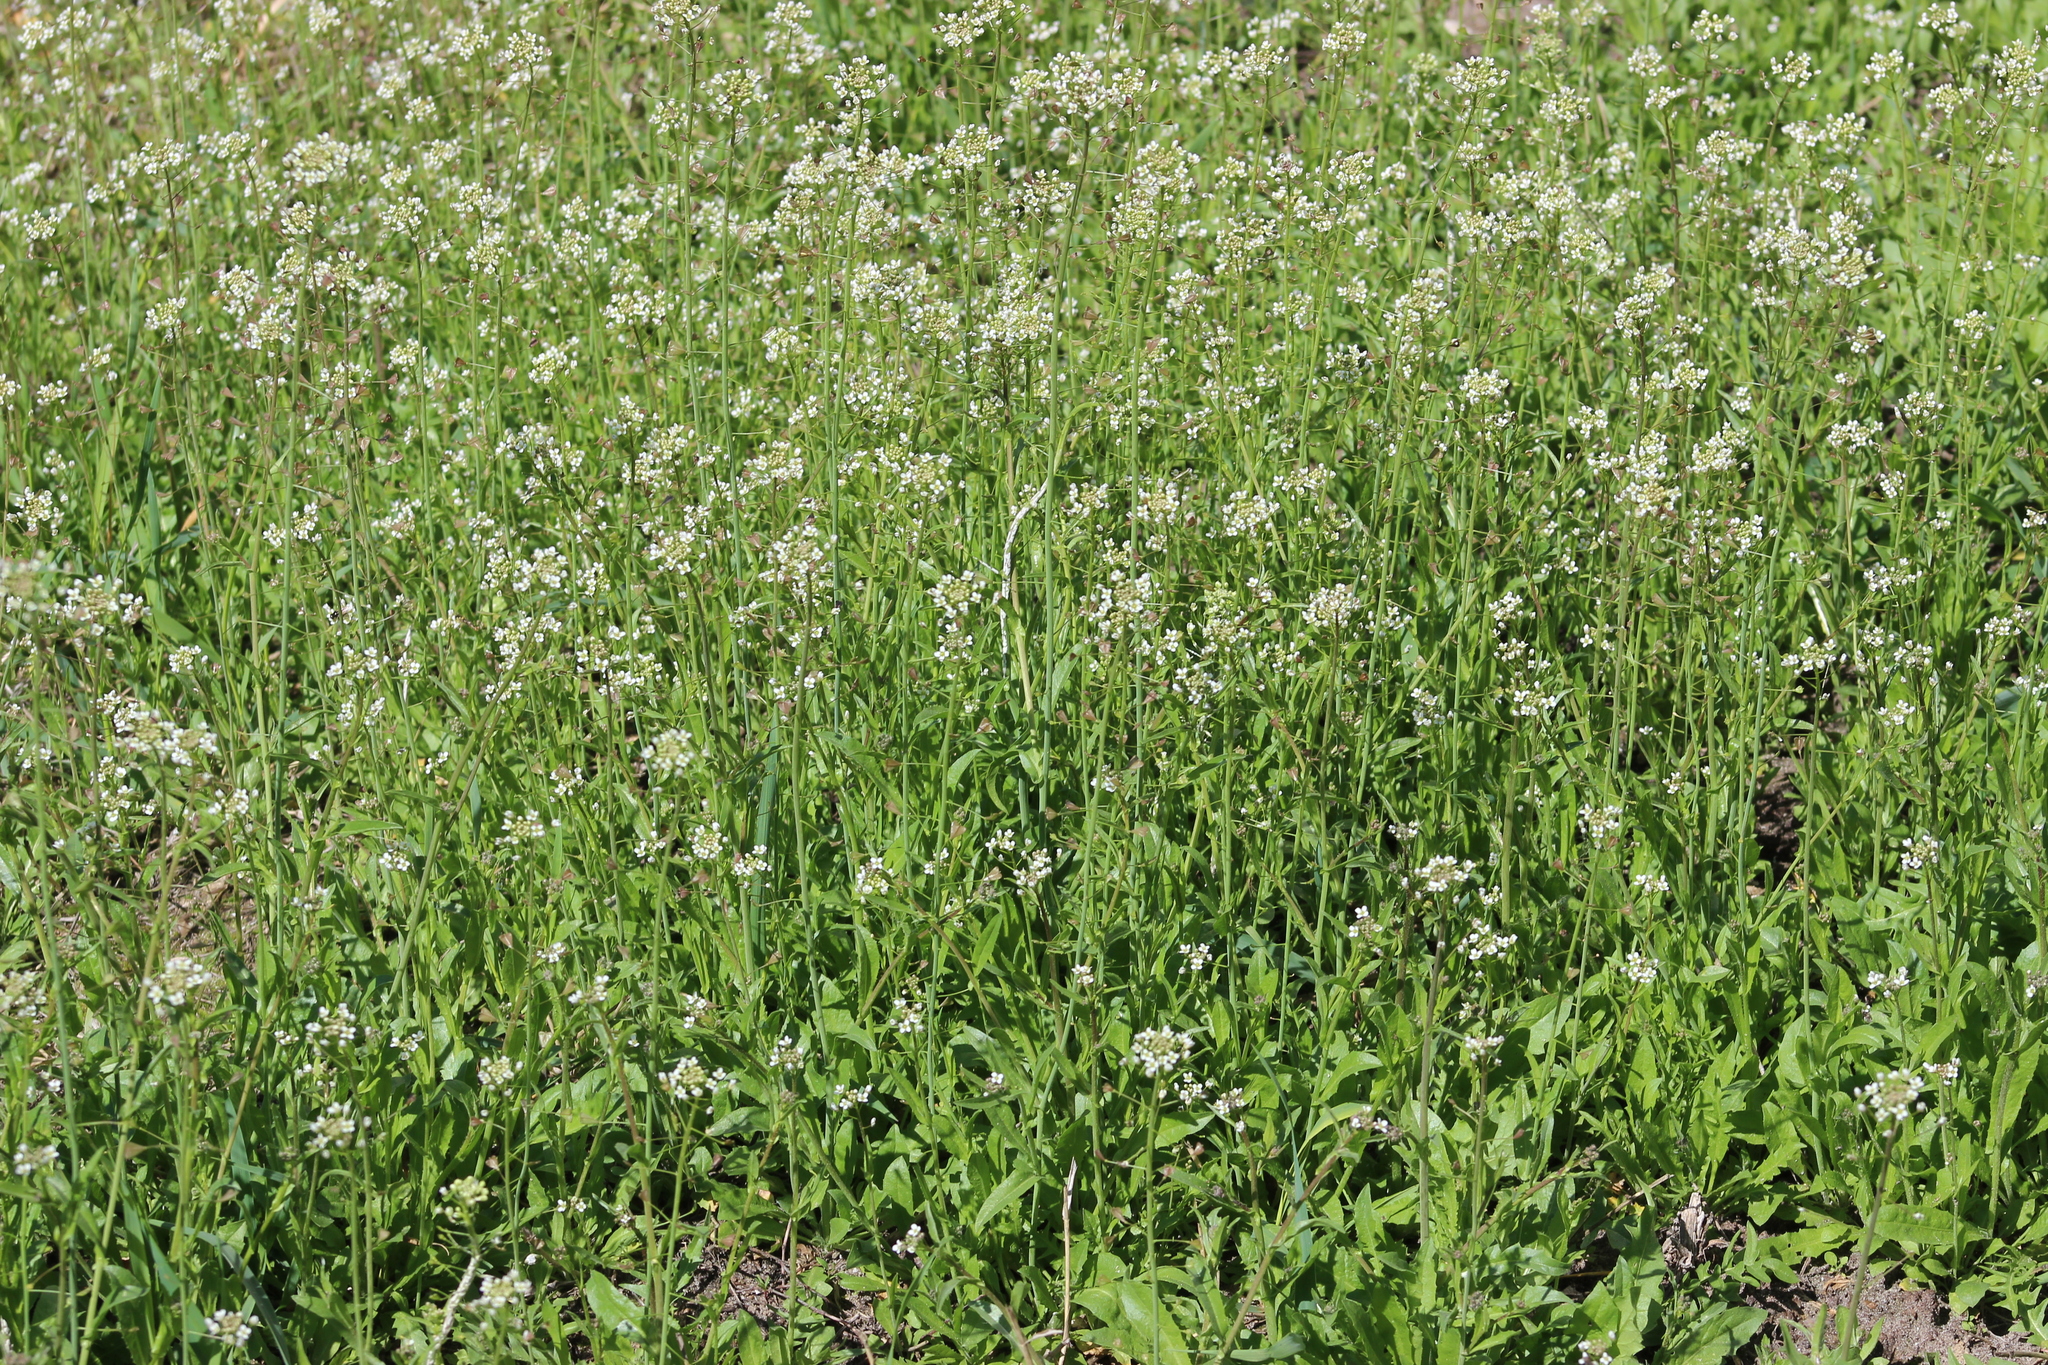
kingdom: Plantae
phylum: Tracheophyta
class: Magnoliopsida
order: Brassicales
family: Brassicaceae
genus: Capsella
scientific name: Capsella bursa-pastoris
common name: Shepherd's purse
